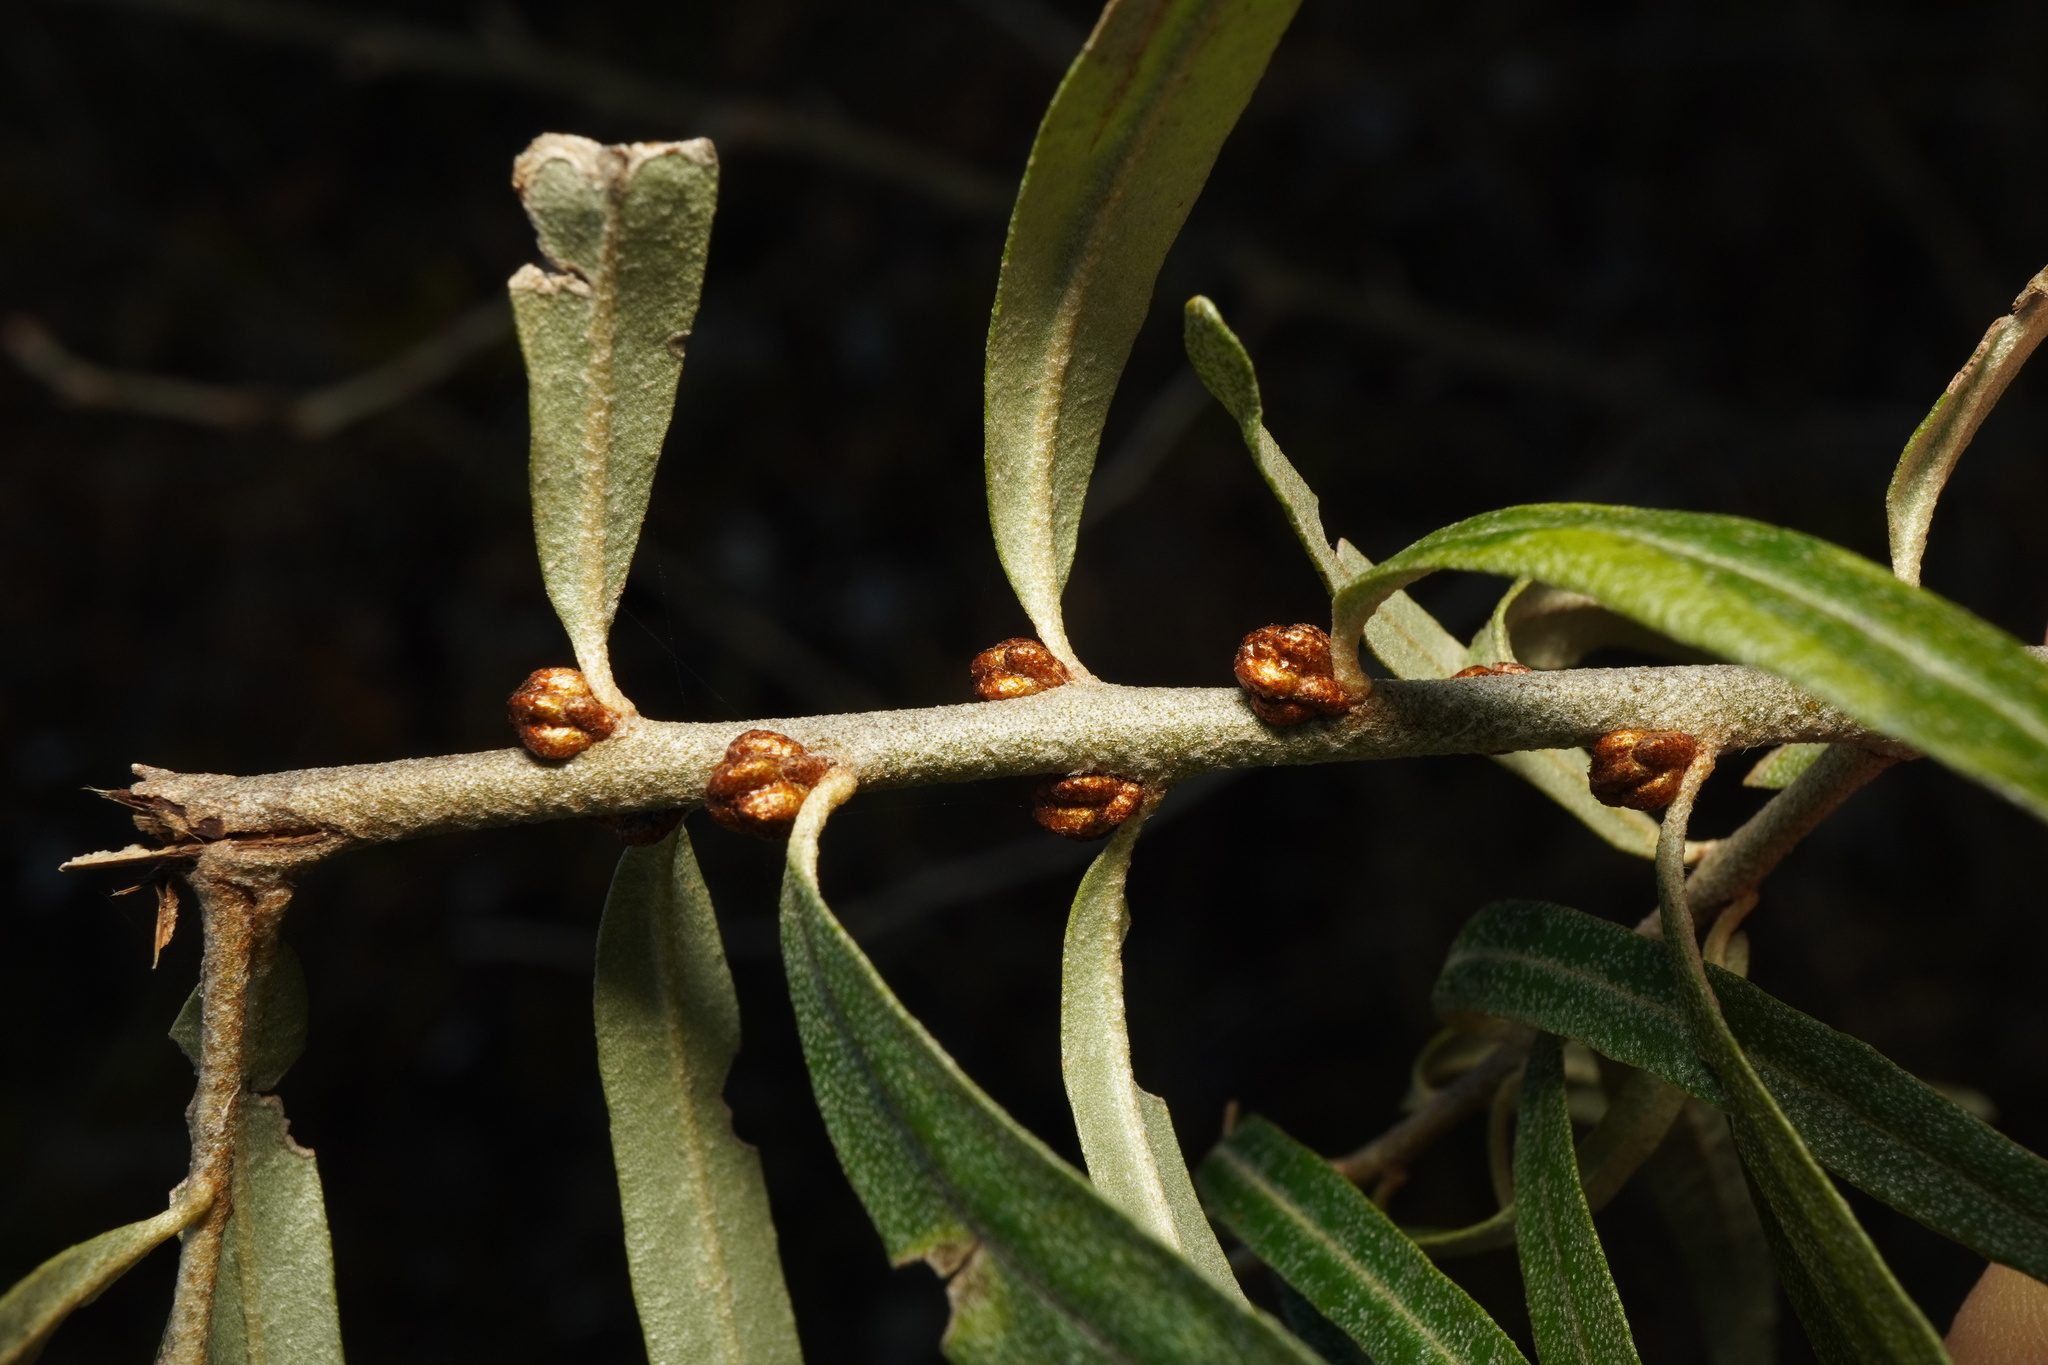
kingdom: Plantae
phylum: Tracheophyta
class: Magnoliopsida
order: Rosales
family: Elaeagnaceae
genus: Hippophae
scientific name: Hippophae rhamnoides
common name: Sea-buckthorn
